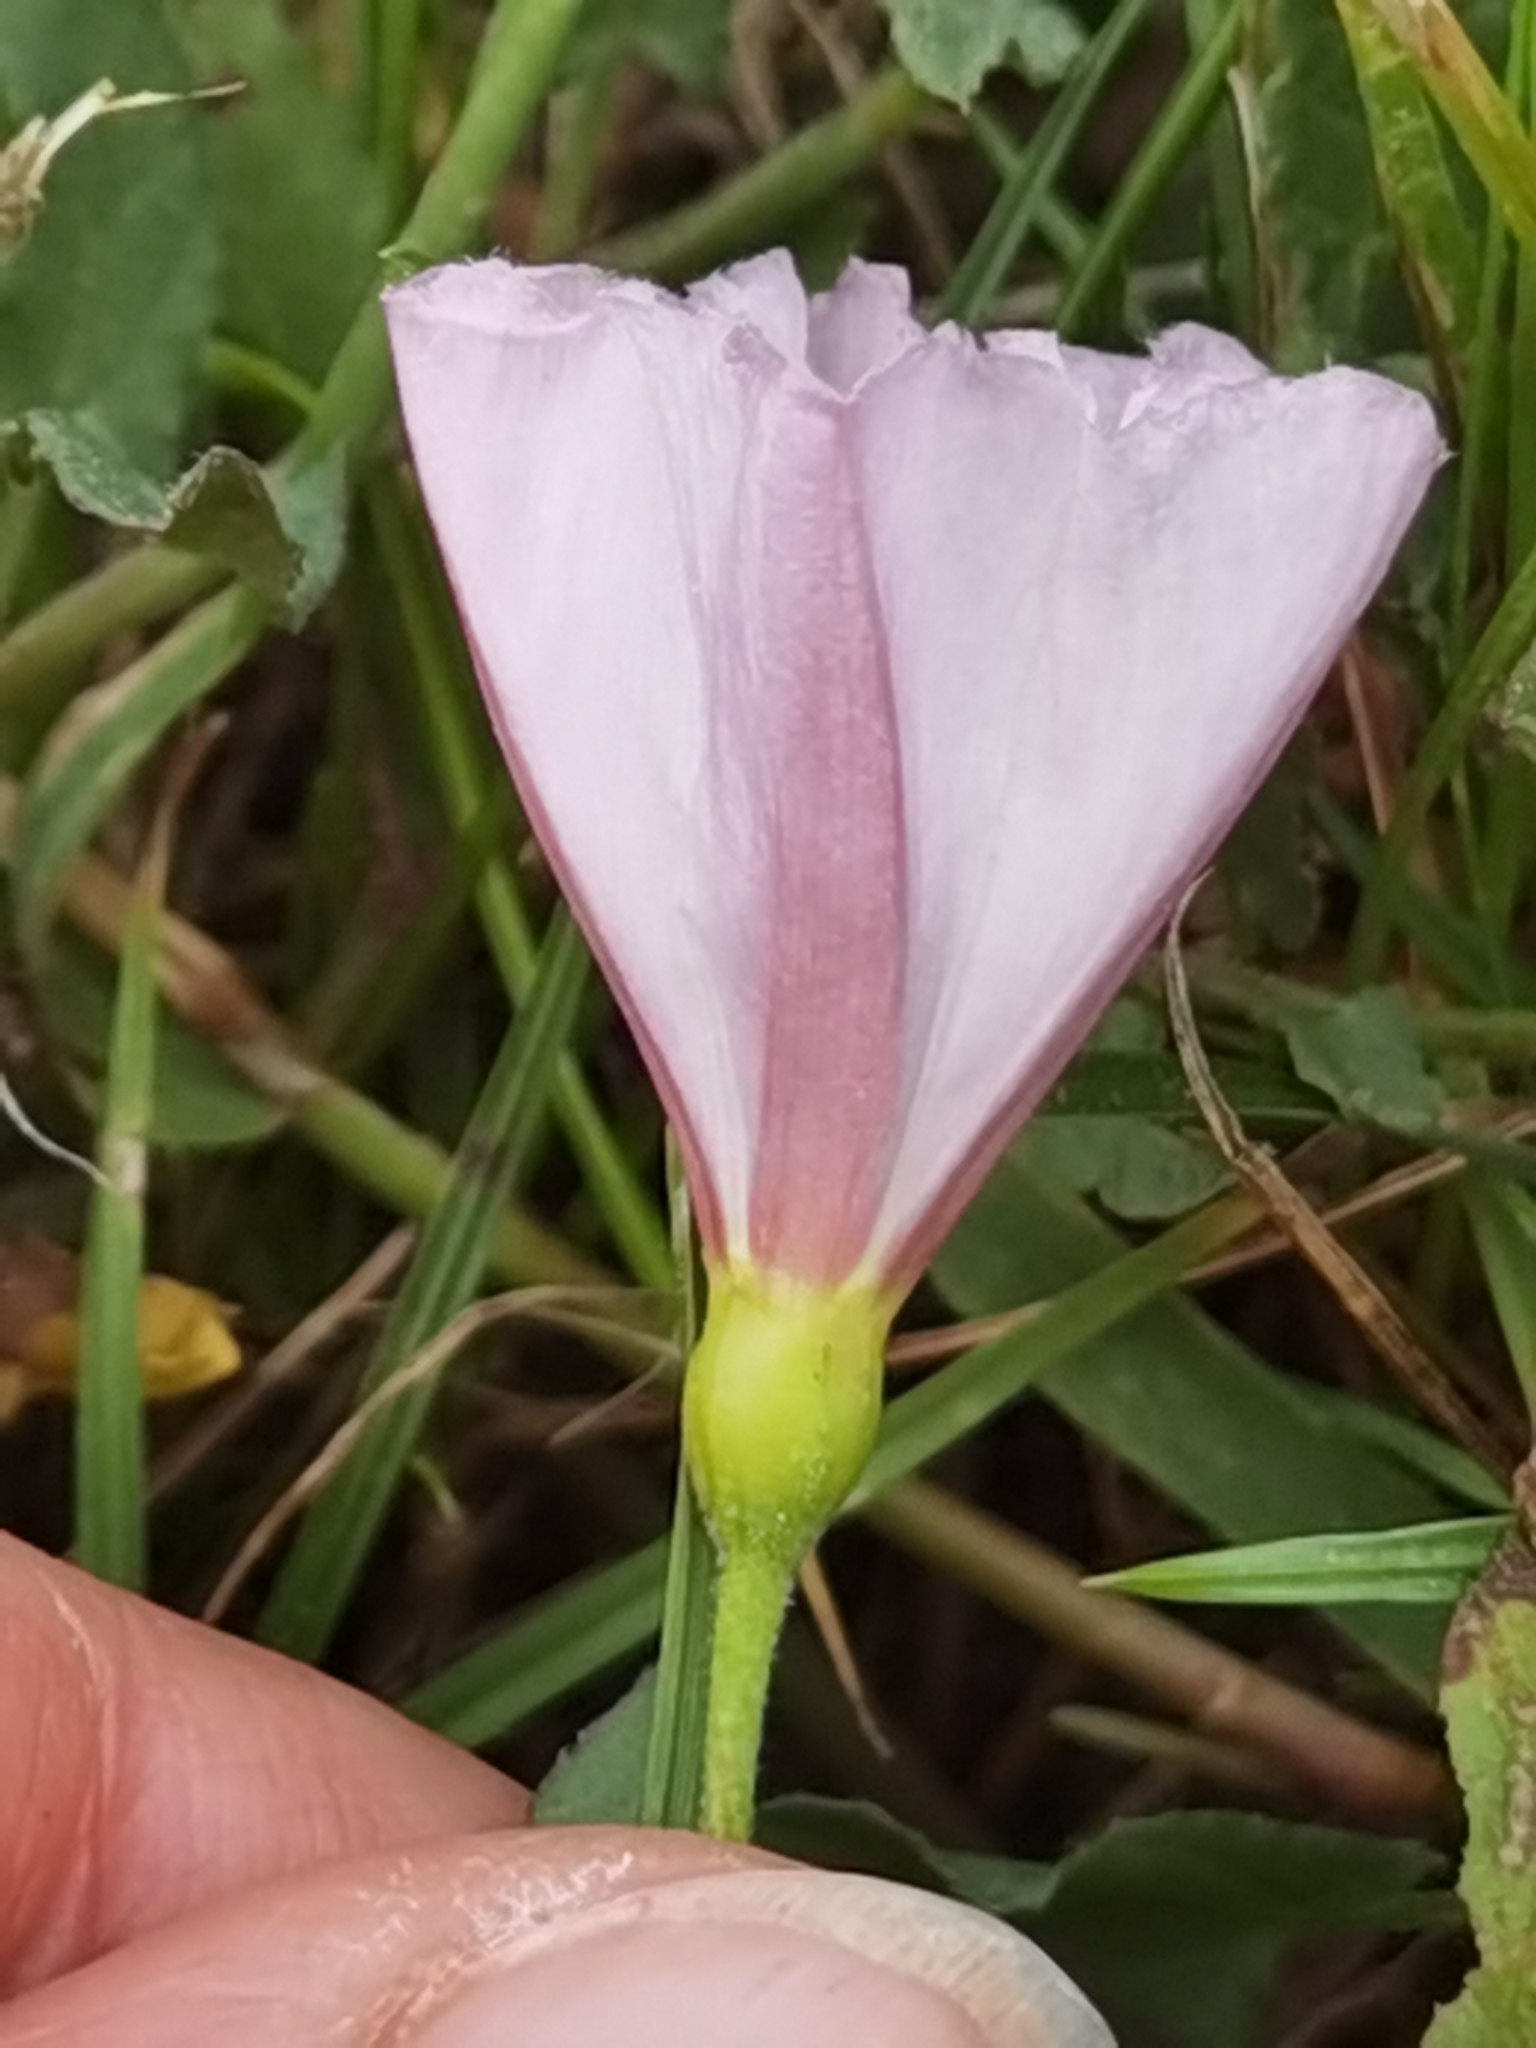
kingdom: Plantae
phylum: Tracheophyta
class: Magnoliopsida
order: Solanales
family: Convolvulaceae
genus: Convolvulus
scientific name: Convolvulus arvensis
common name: Field bindweed
